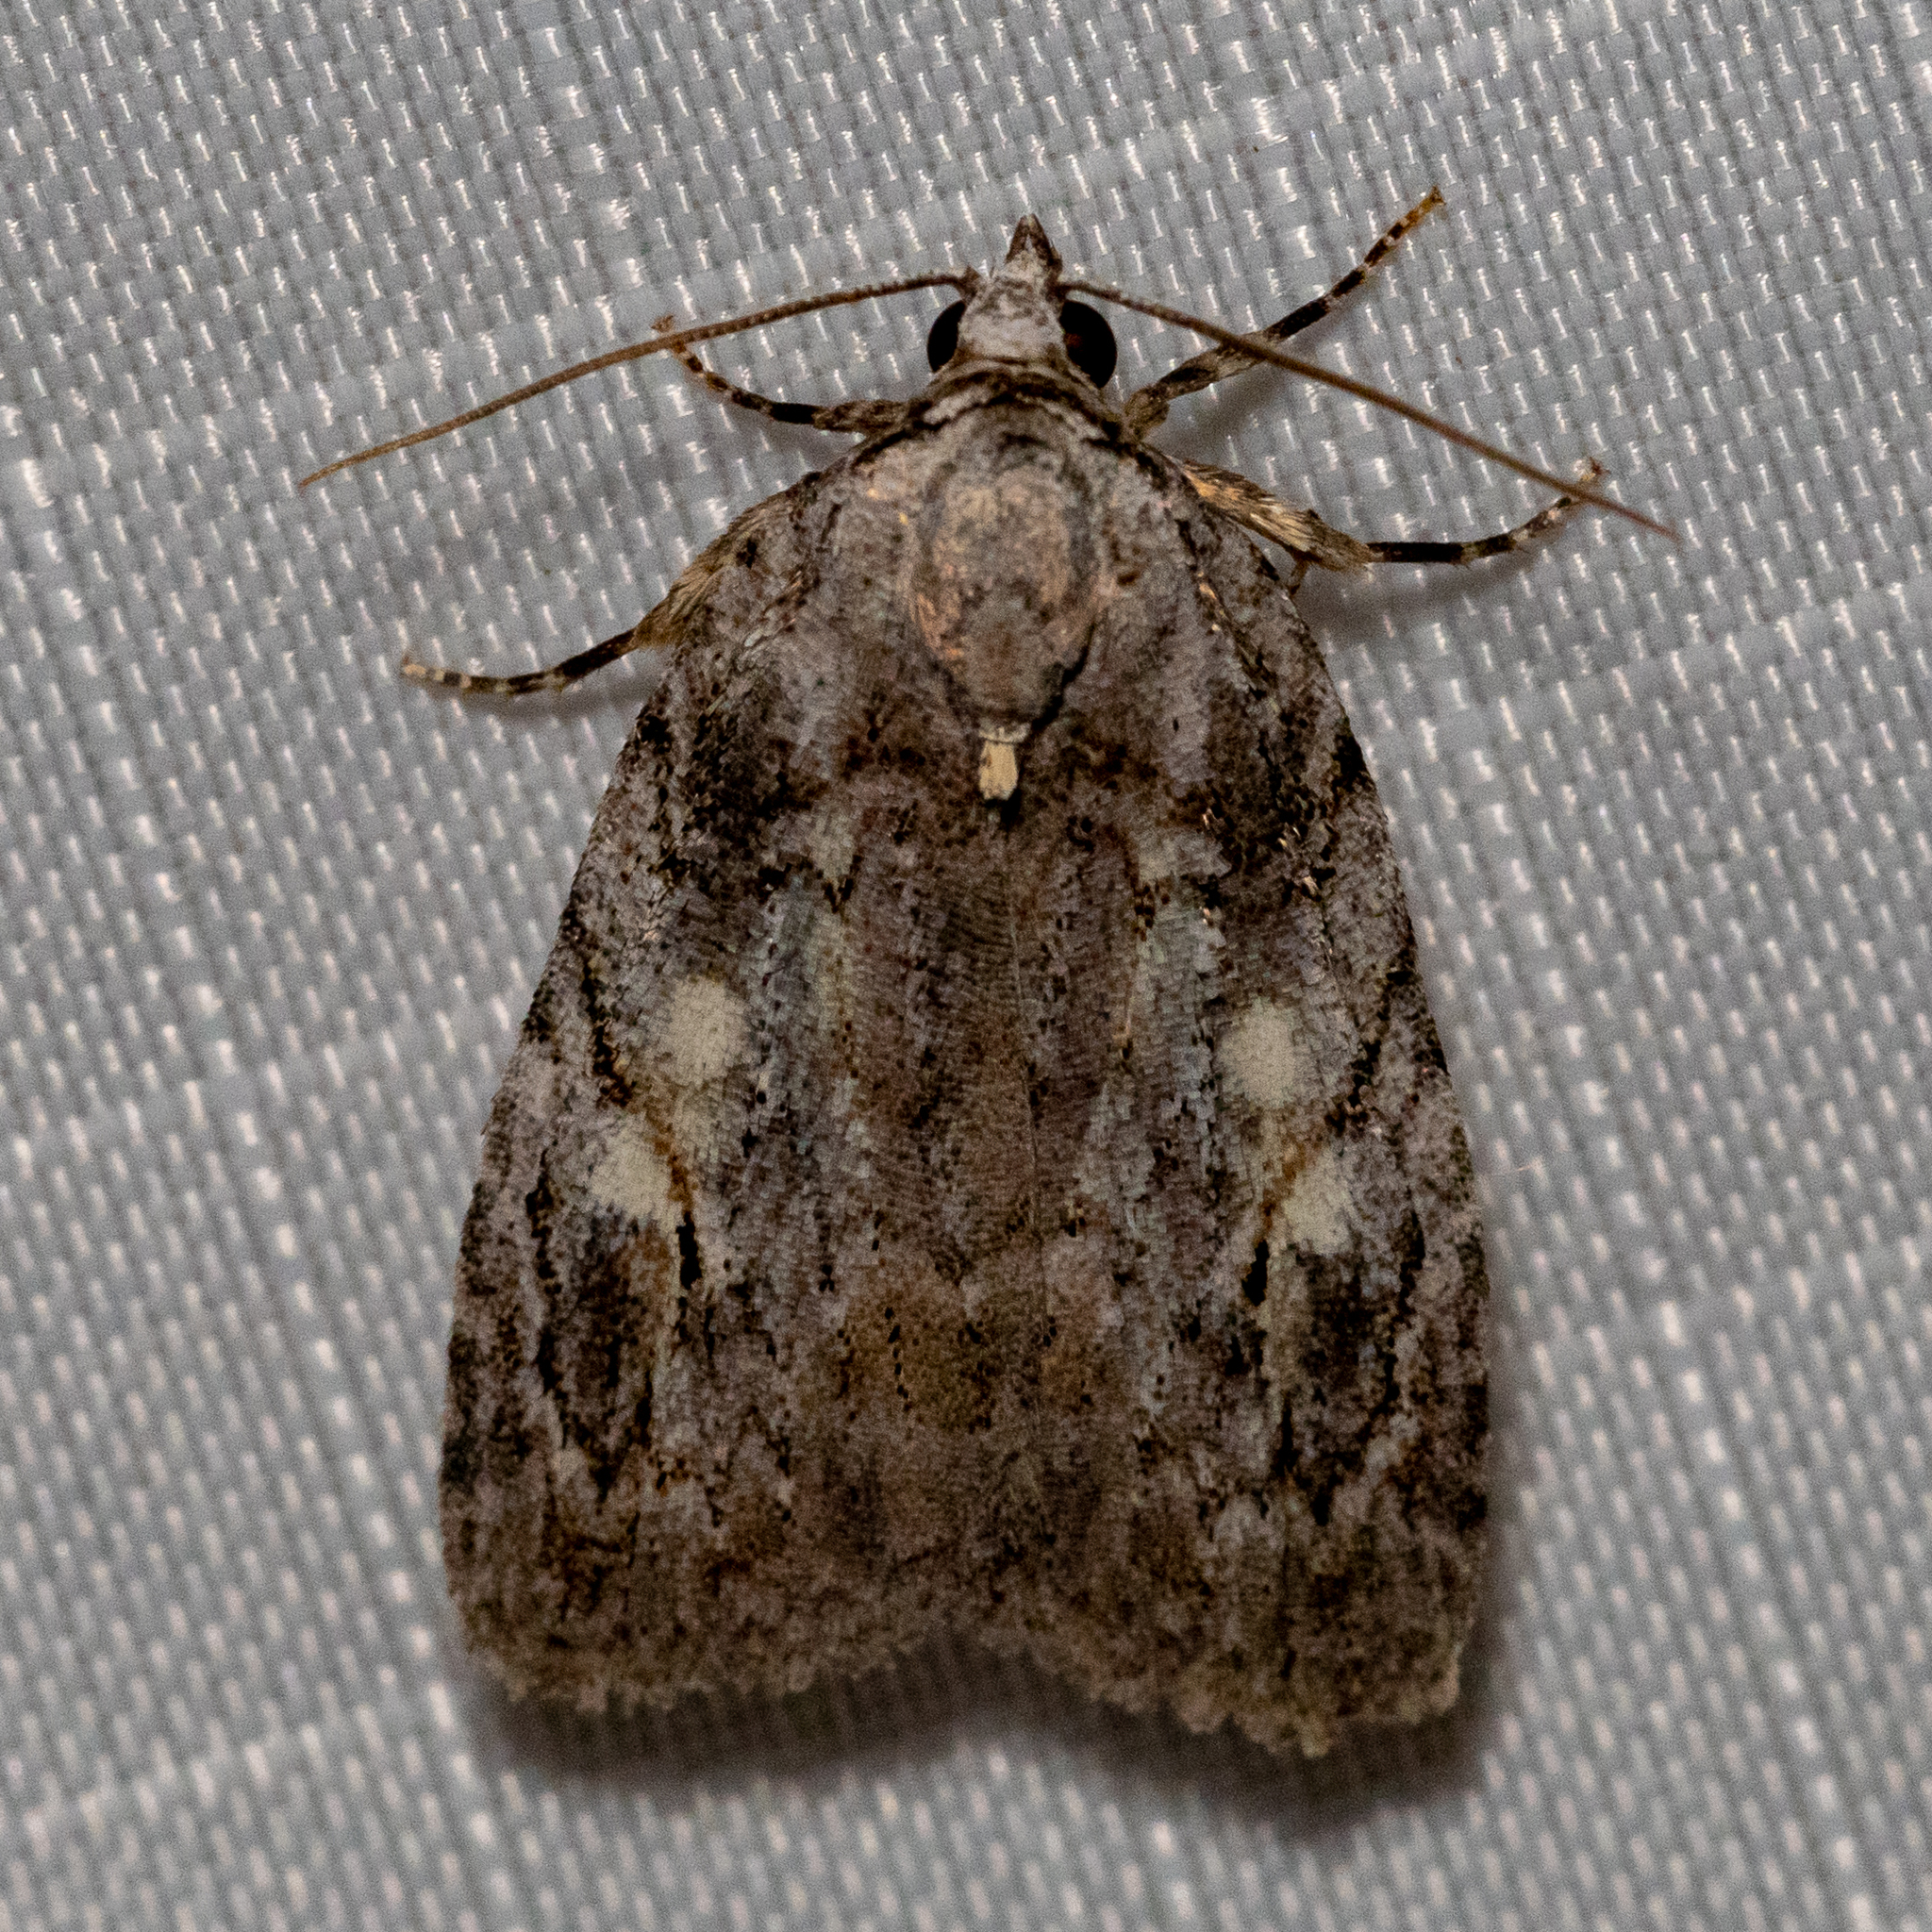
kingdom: Animalia
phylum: Arthropoda
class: Insecta
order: Lepidoptera
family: Noctuidae
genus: Balsa
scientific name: Balsa labecula
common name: White-blotched balsa moth
